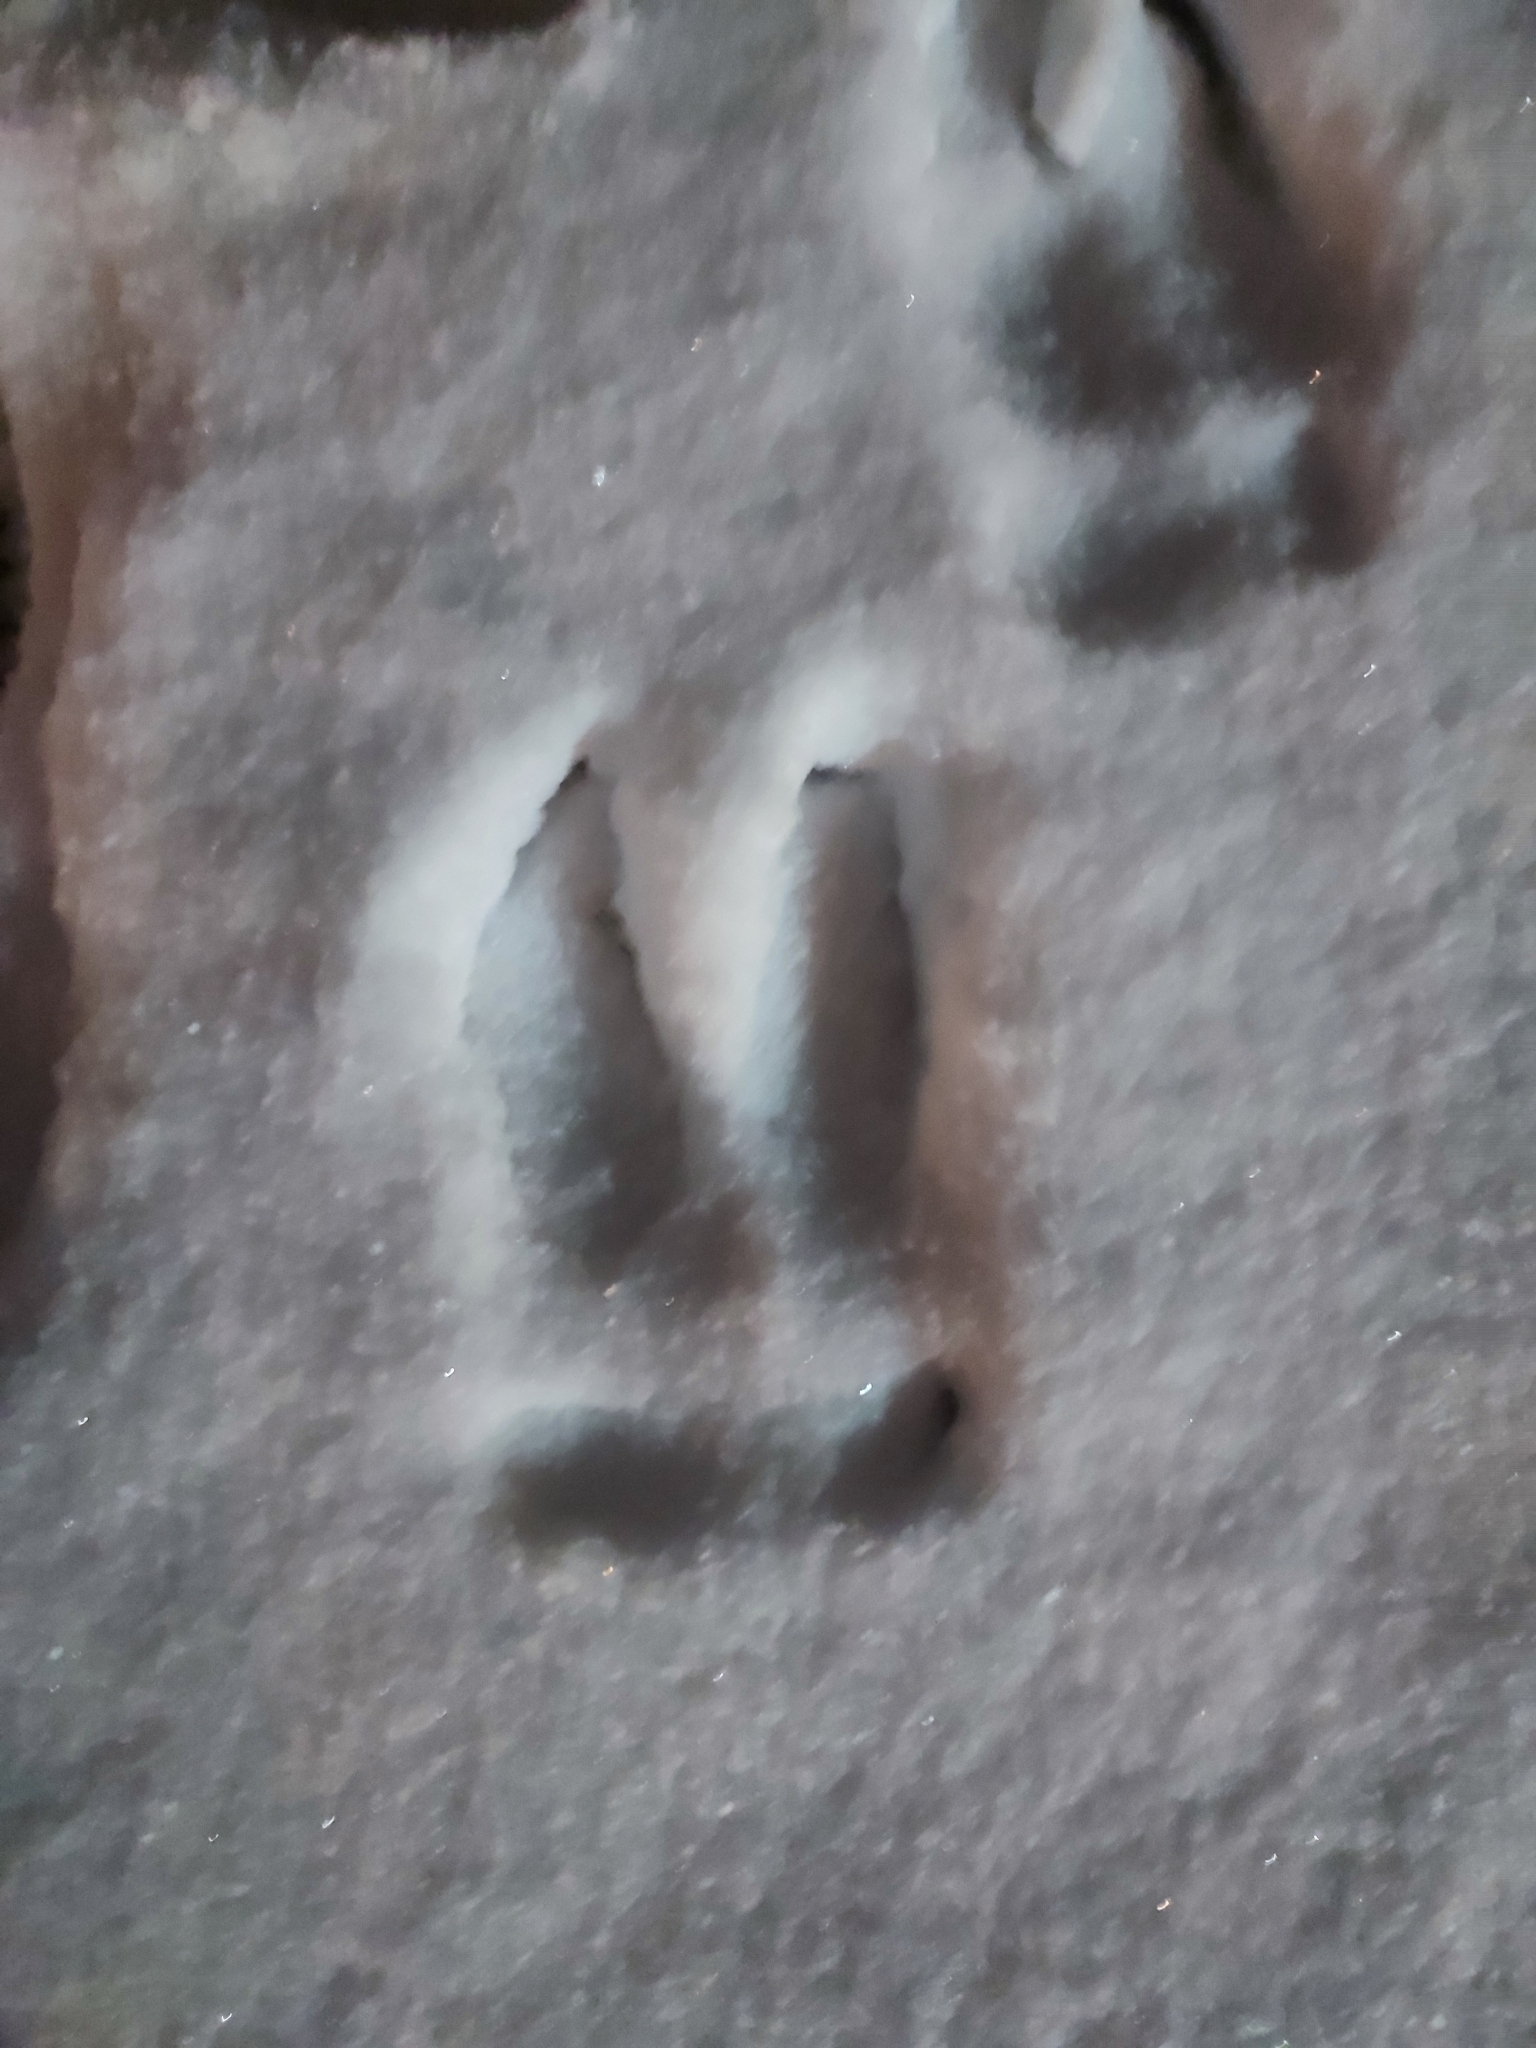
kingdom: Animalia
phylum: Chordata
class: Mammalia
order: Artiodactyla
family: Cervidae
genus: Alces
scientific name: Alces alces
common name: Moose
